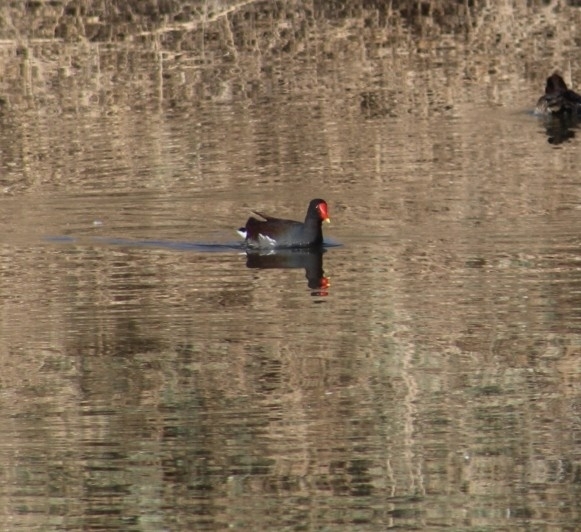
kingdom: Animalia
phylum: Chordata
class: Aves
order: Gruiformes
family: Rallidae
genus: Gallinula
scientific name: Gallinula chloropus
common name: Common moorhen
